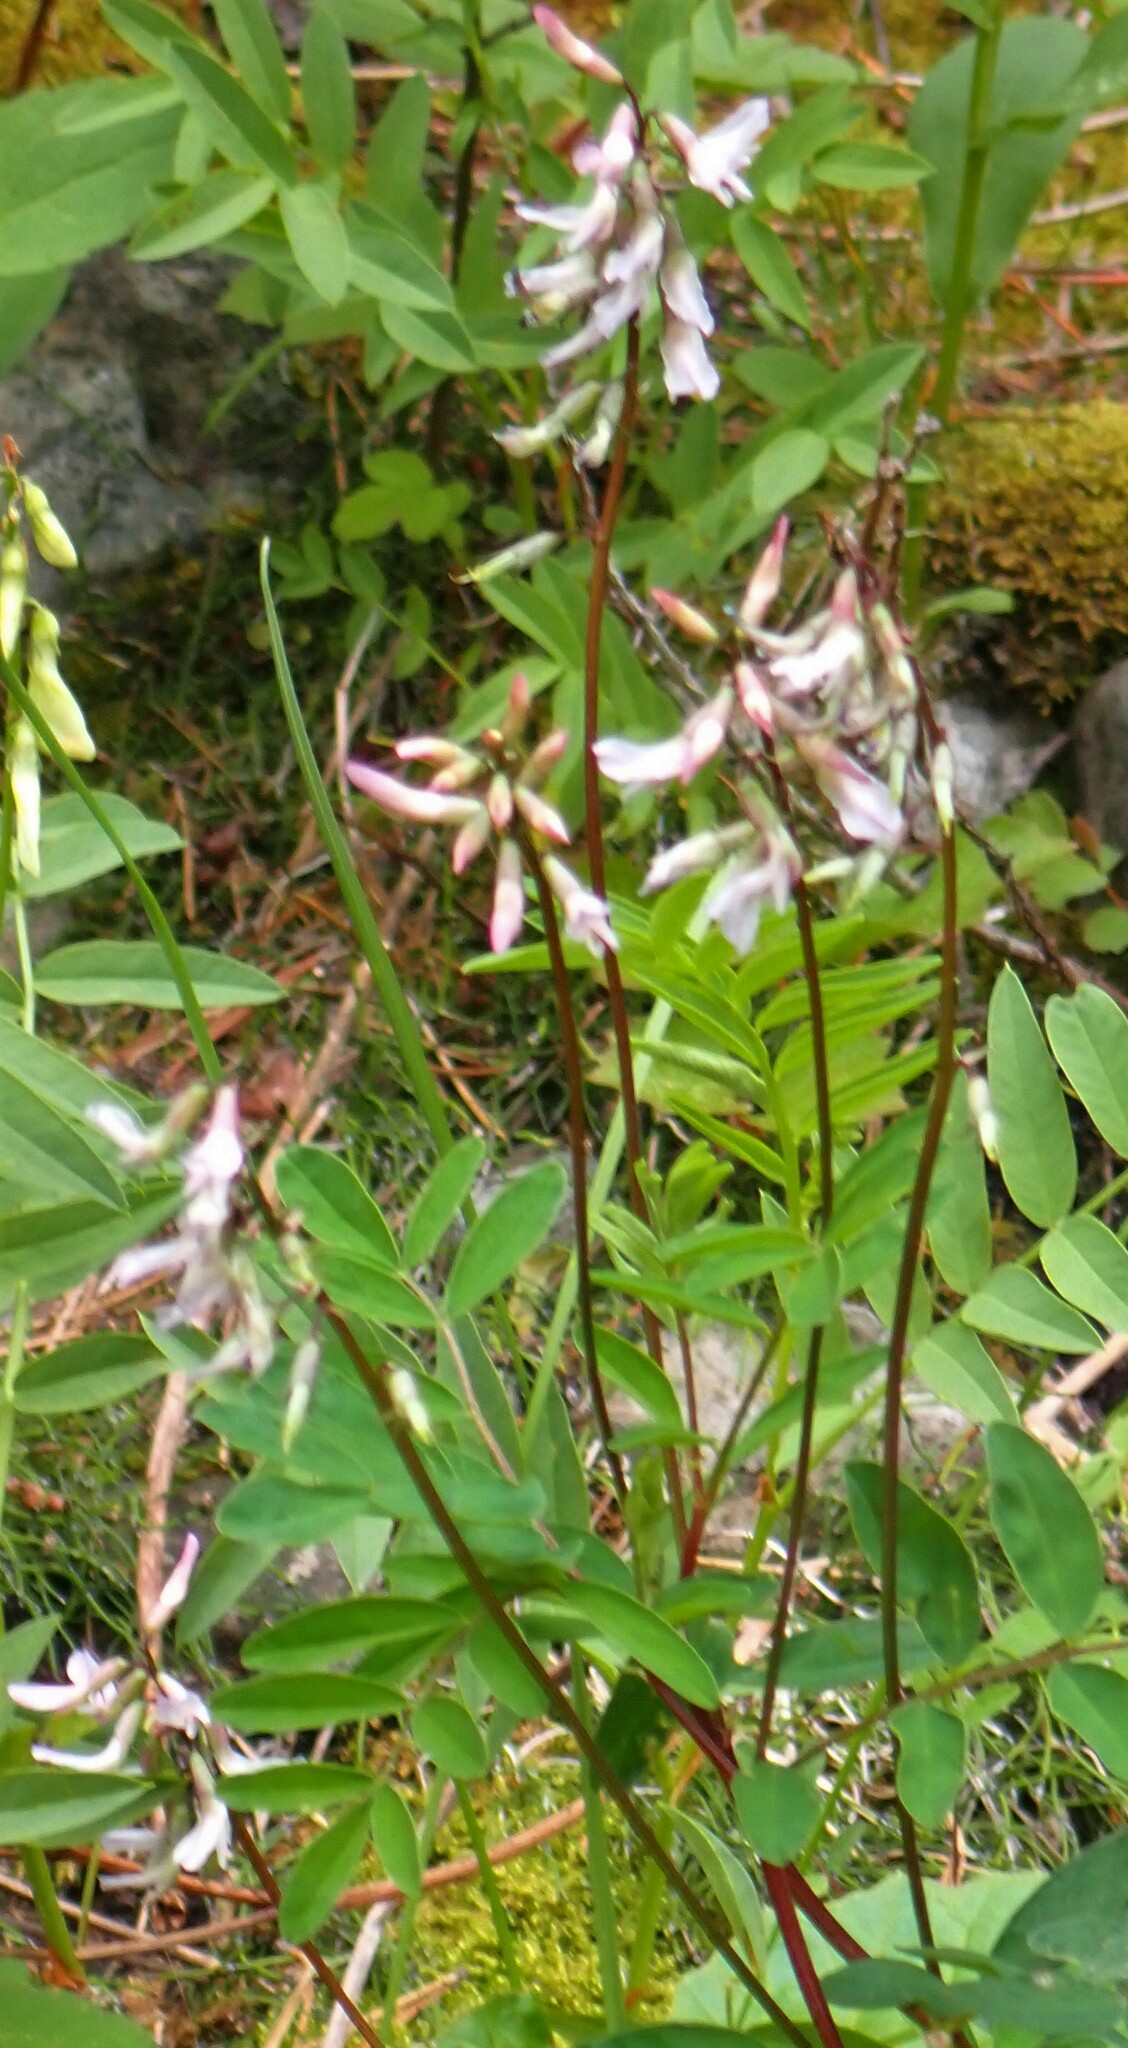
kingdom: Plantae
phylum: Tracheophyta
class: Magnoliopsida
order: Fabales
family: Fabaceae
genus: Astragalus
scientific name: Astragalus robbinsii
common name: Robbins' milk-vetch
